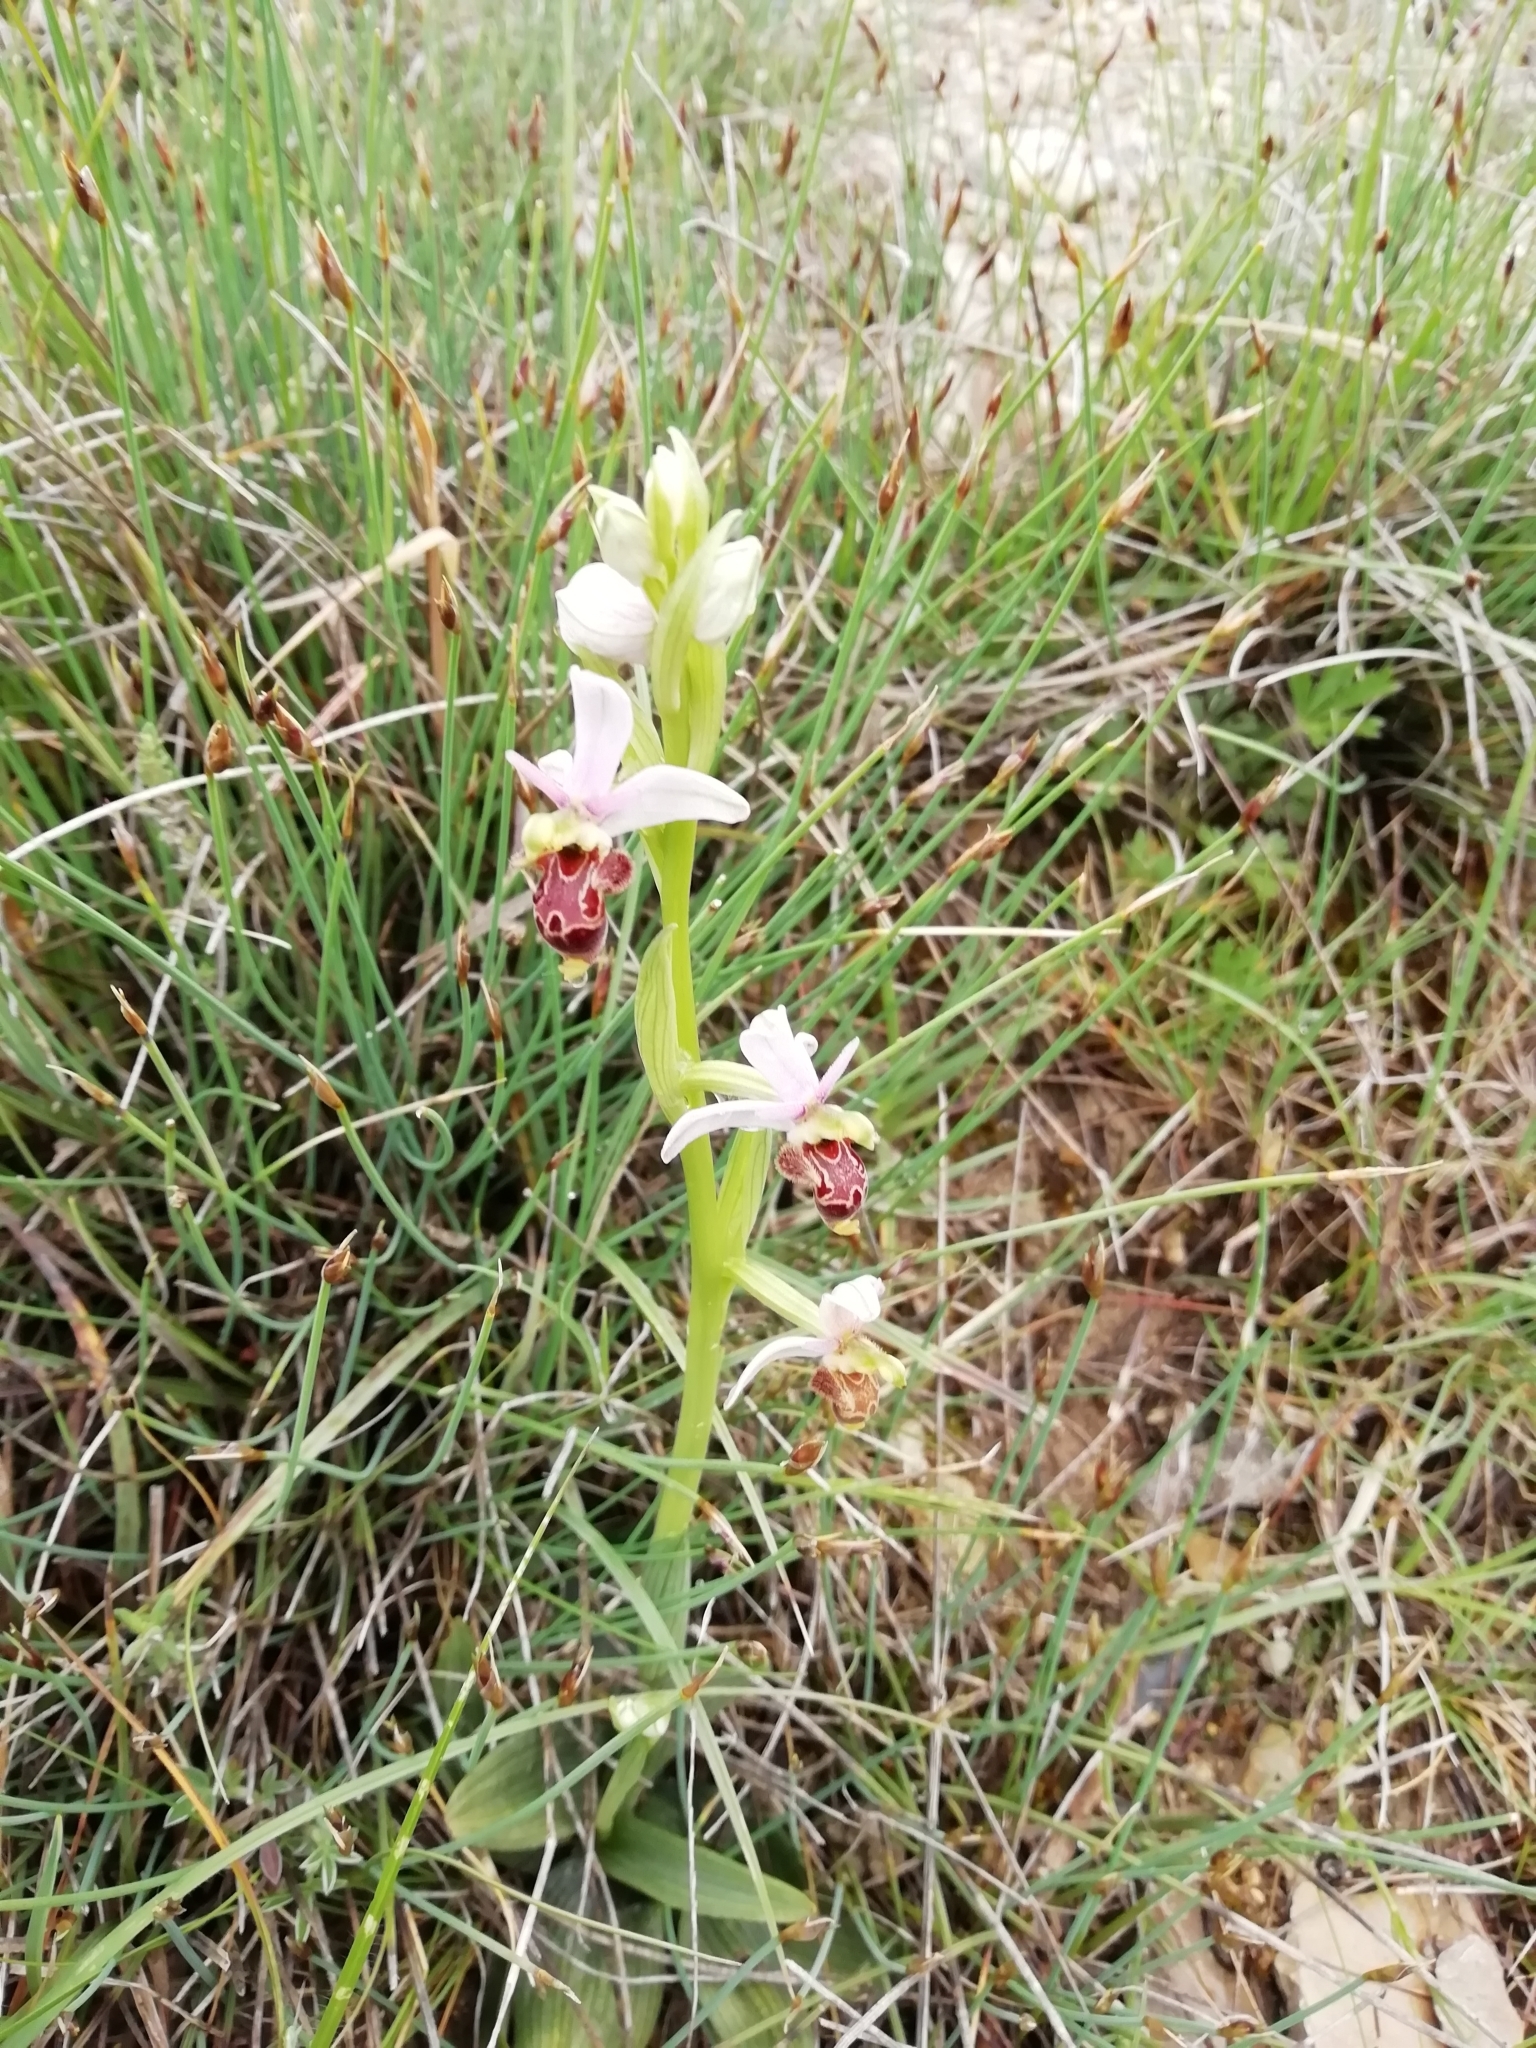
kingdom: Plantae
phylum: Tracheophyta
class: Liliopsida
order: Asparagales
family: Orchidaceae
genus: Ophrys
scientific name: Ophrys scolopax
